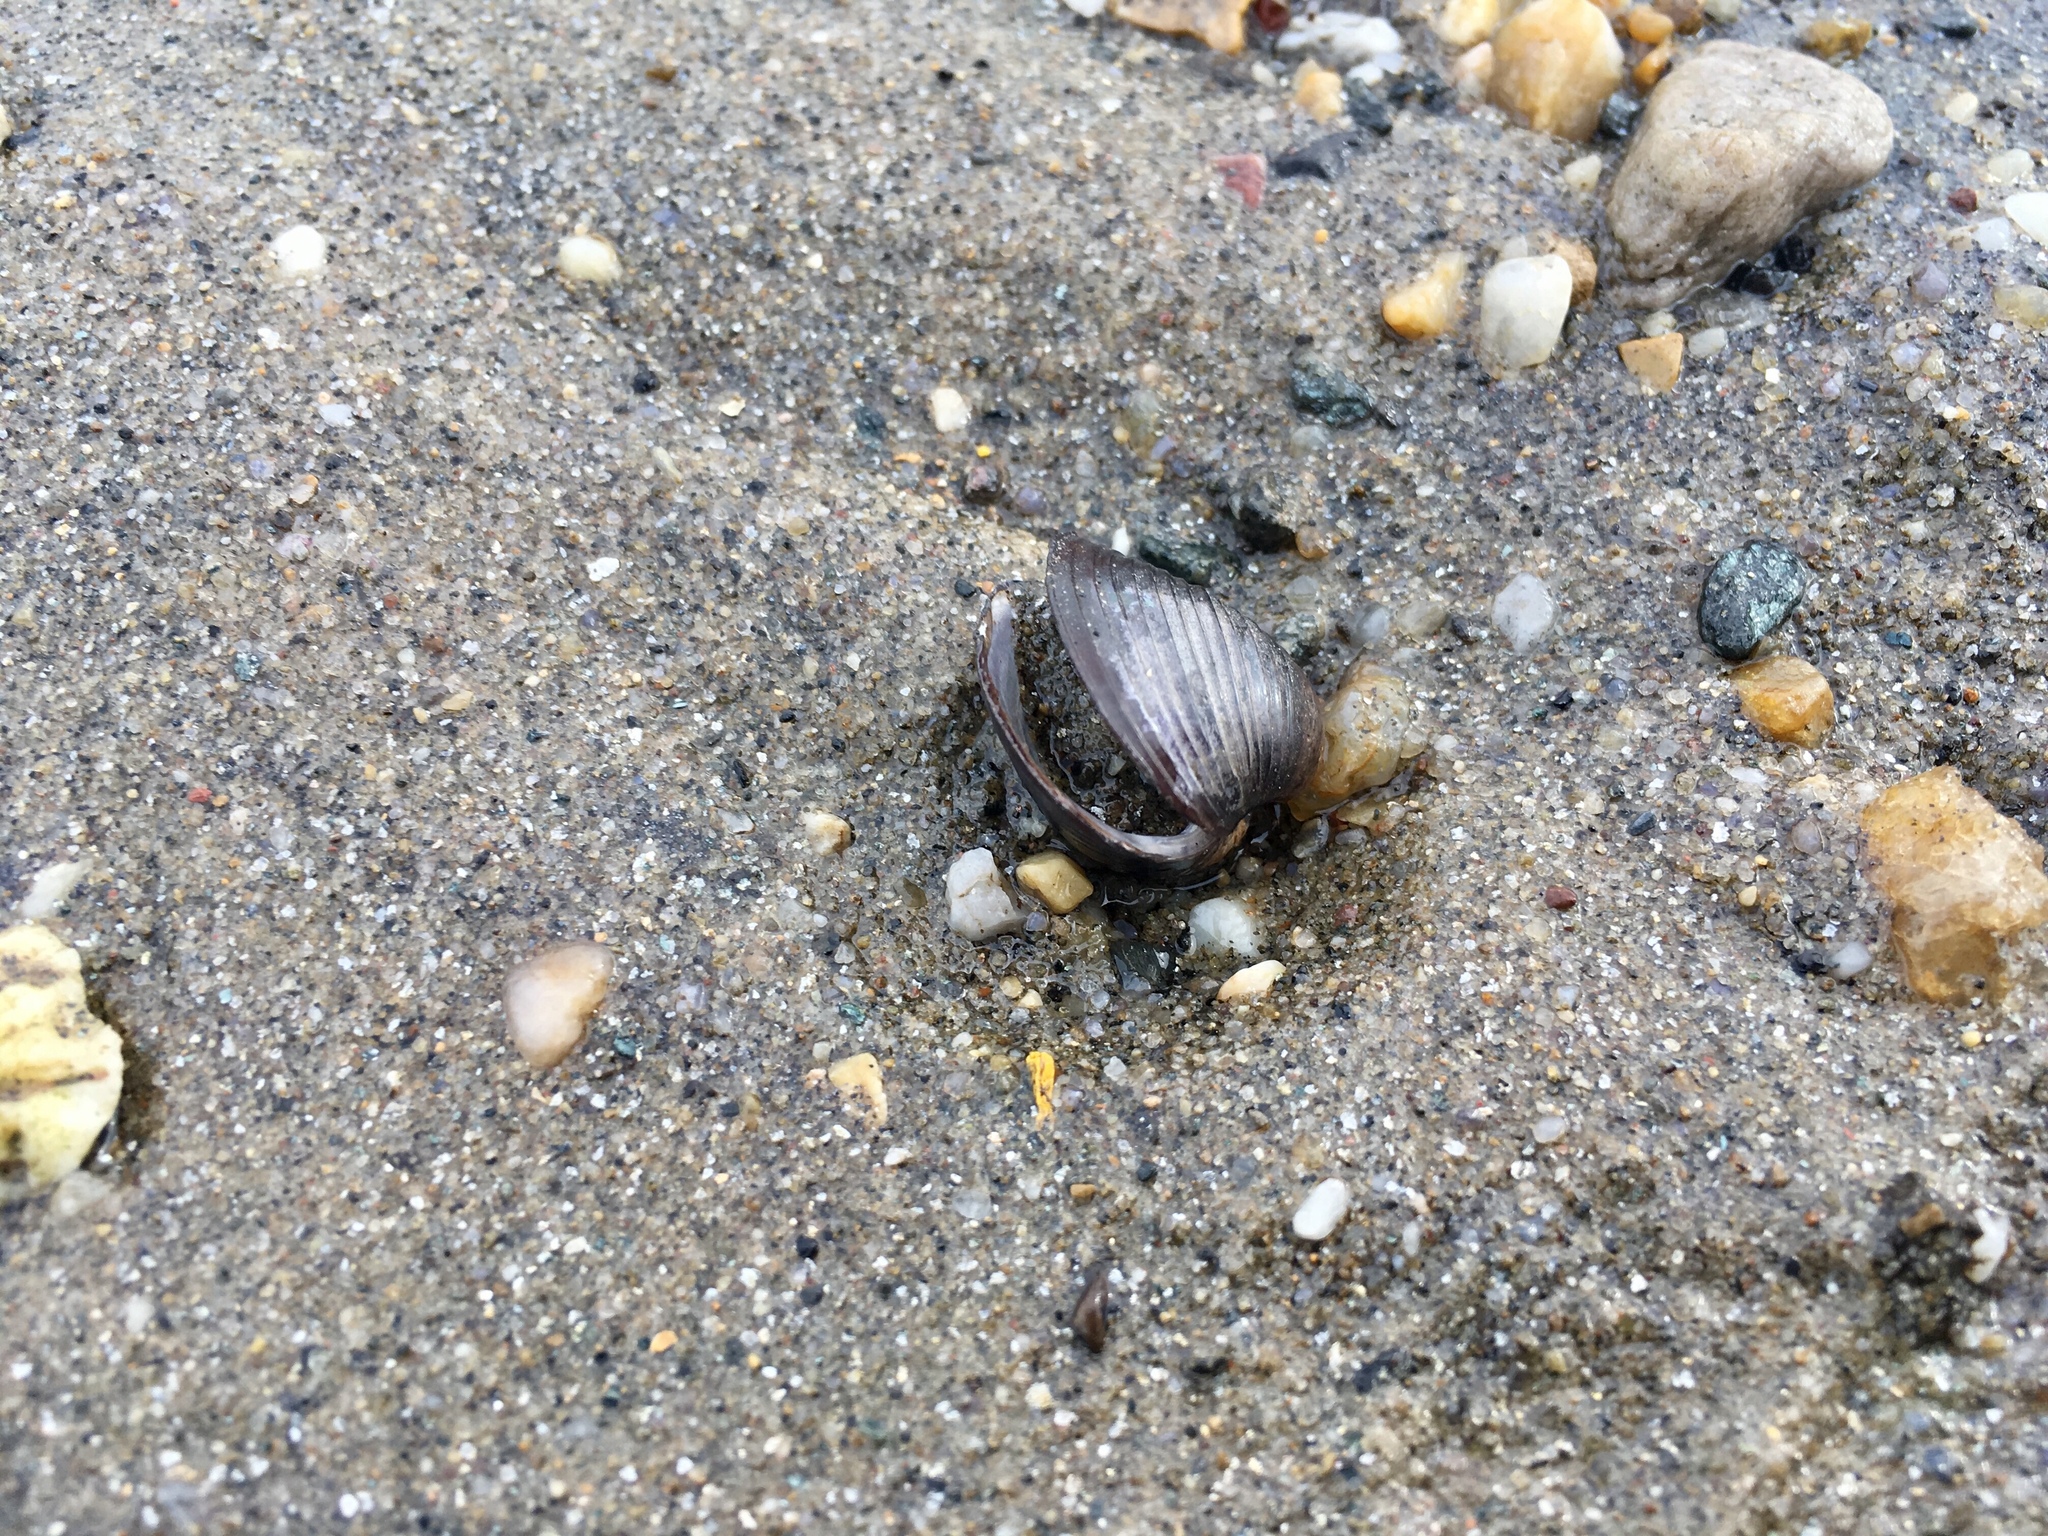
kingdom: Animalia
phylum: Mollusca
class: Bivalvia
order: Venerida
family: Cyrenidae
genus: Corbicula
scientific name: Corbicula fluminea
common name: Asian clam
